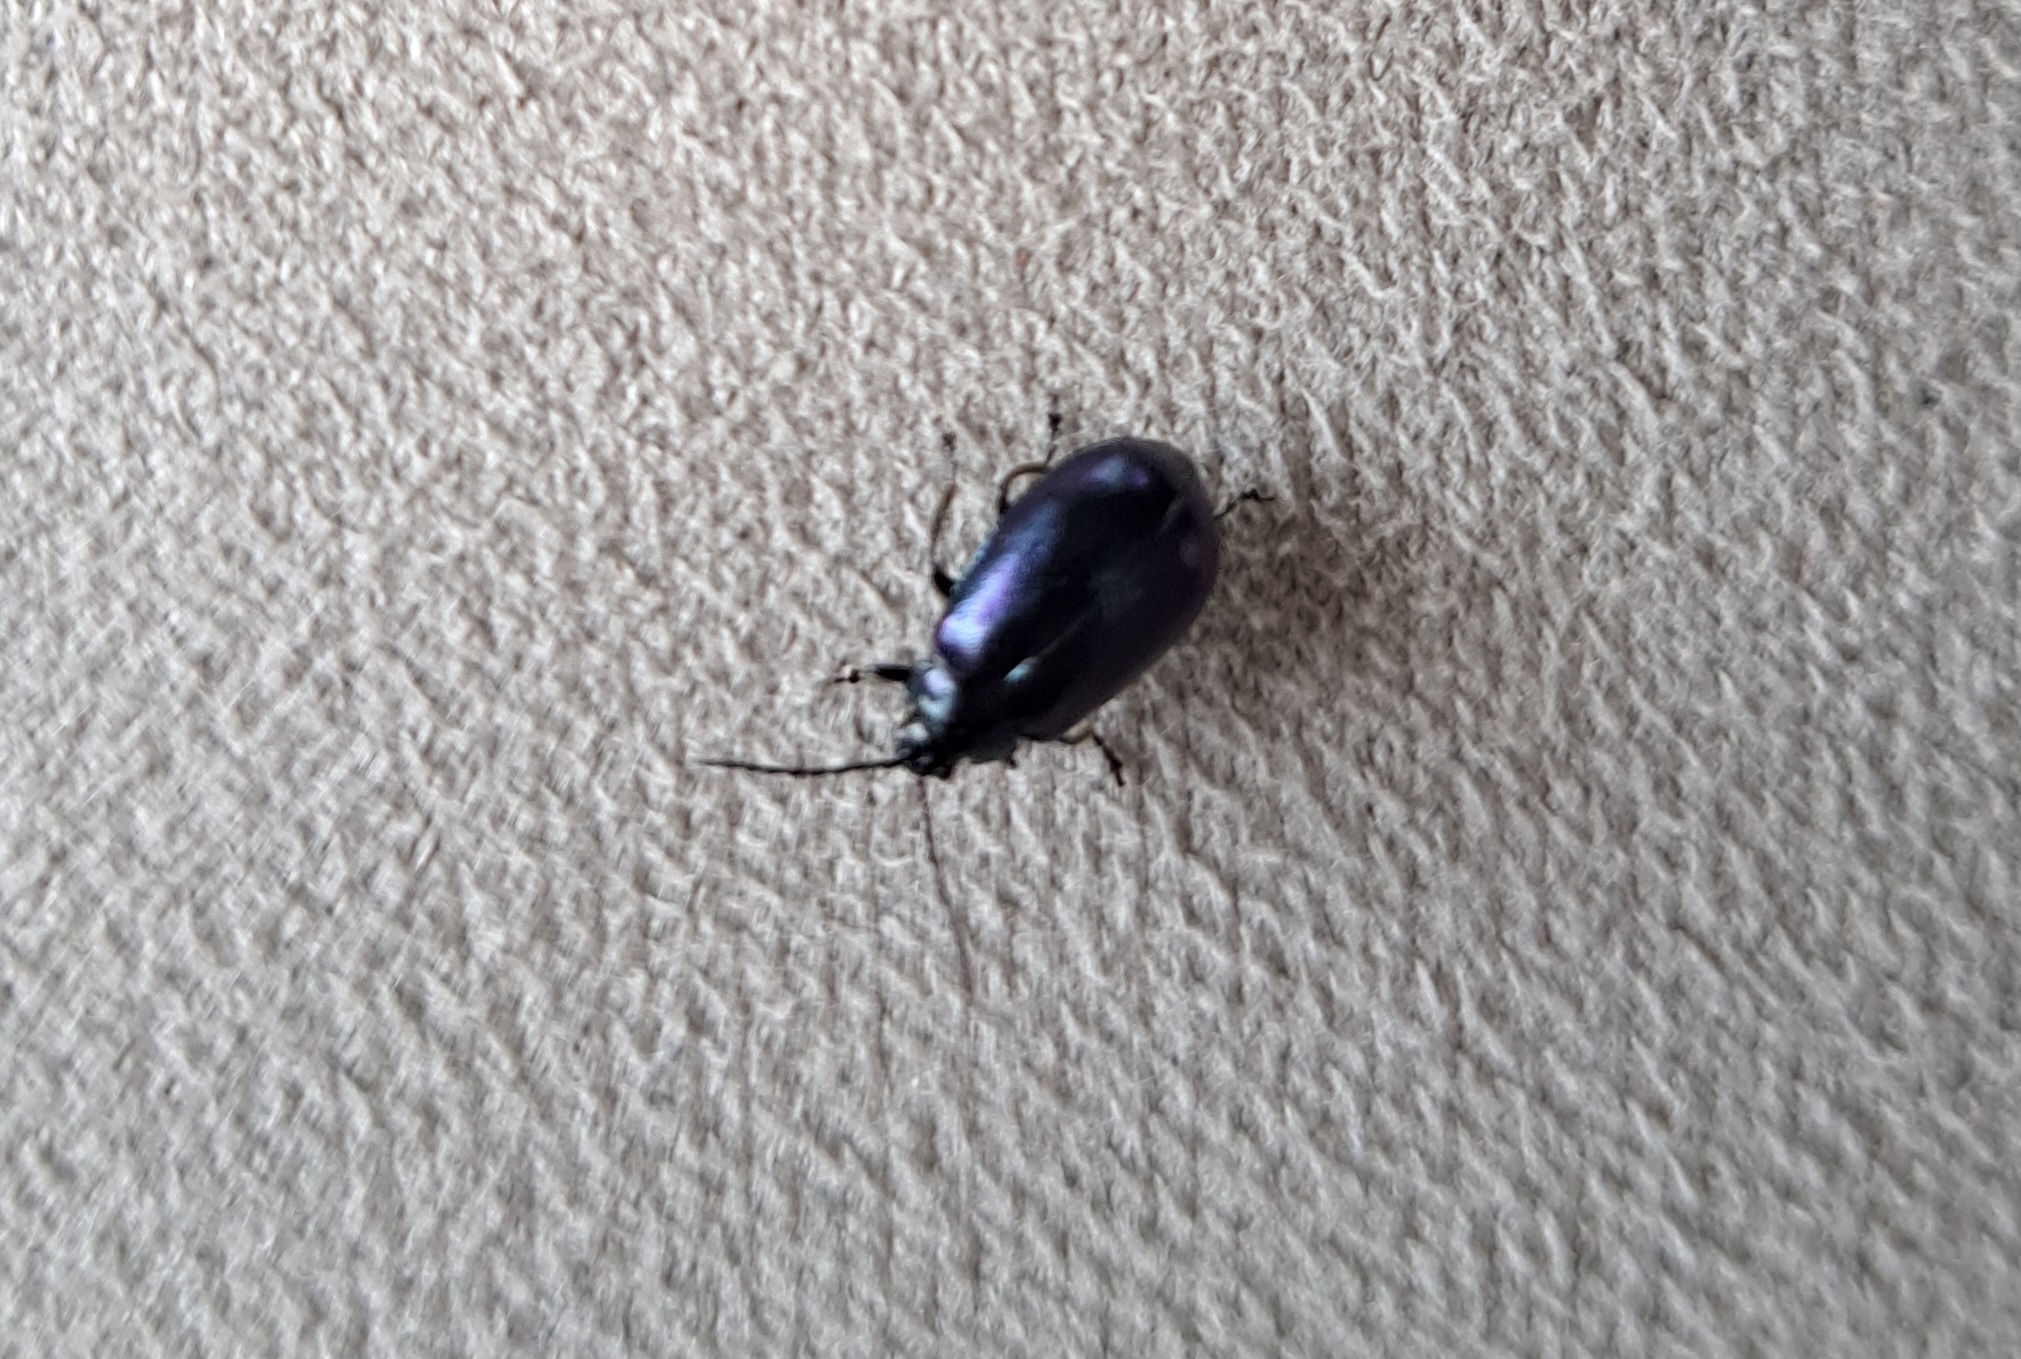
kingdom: Animalia
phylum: Arthropoda
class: Insecta
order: Coleoptera
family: Chrysomelidae
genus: Agelastica
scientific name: Agelastica alni
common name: Alder leaf beetle
